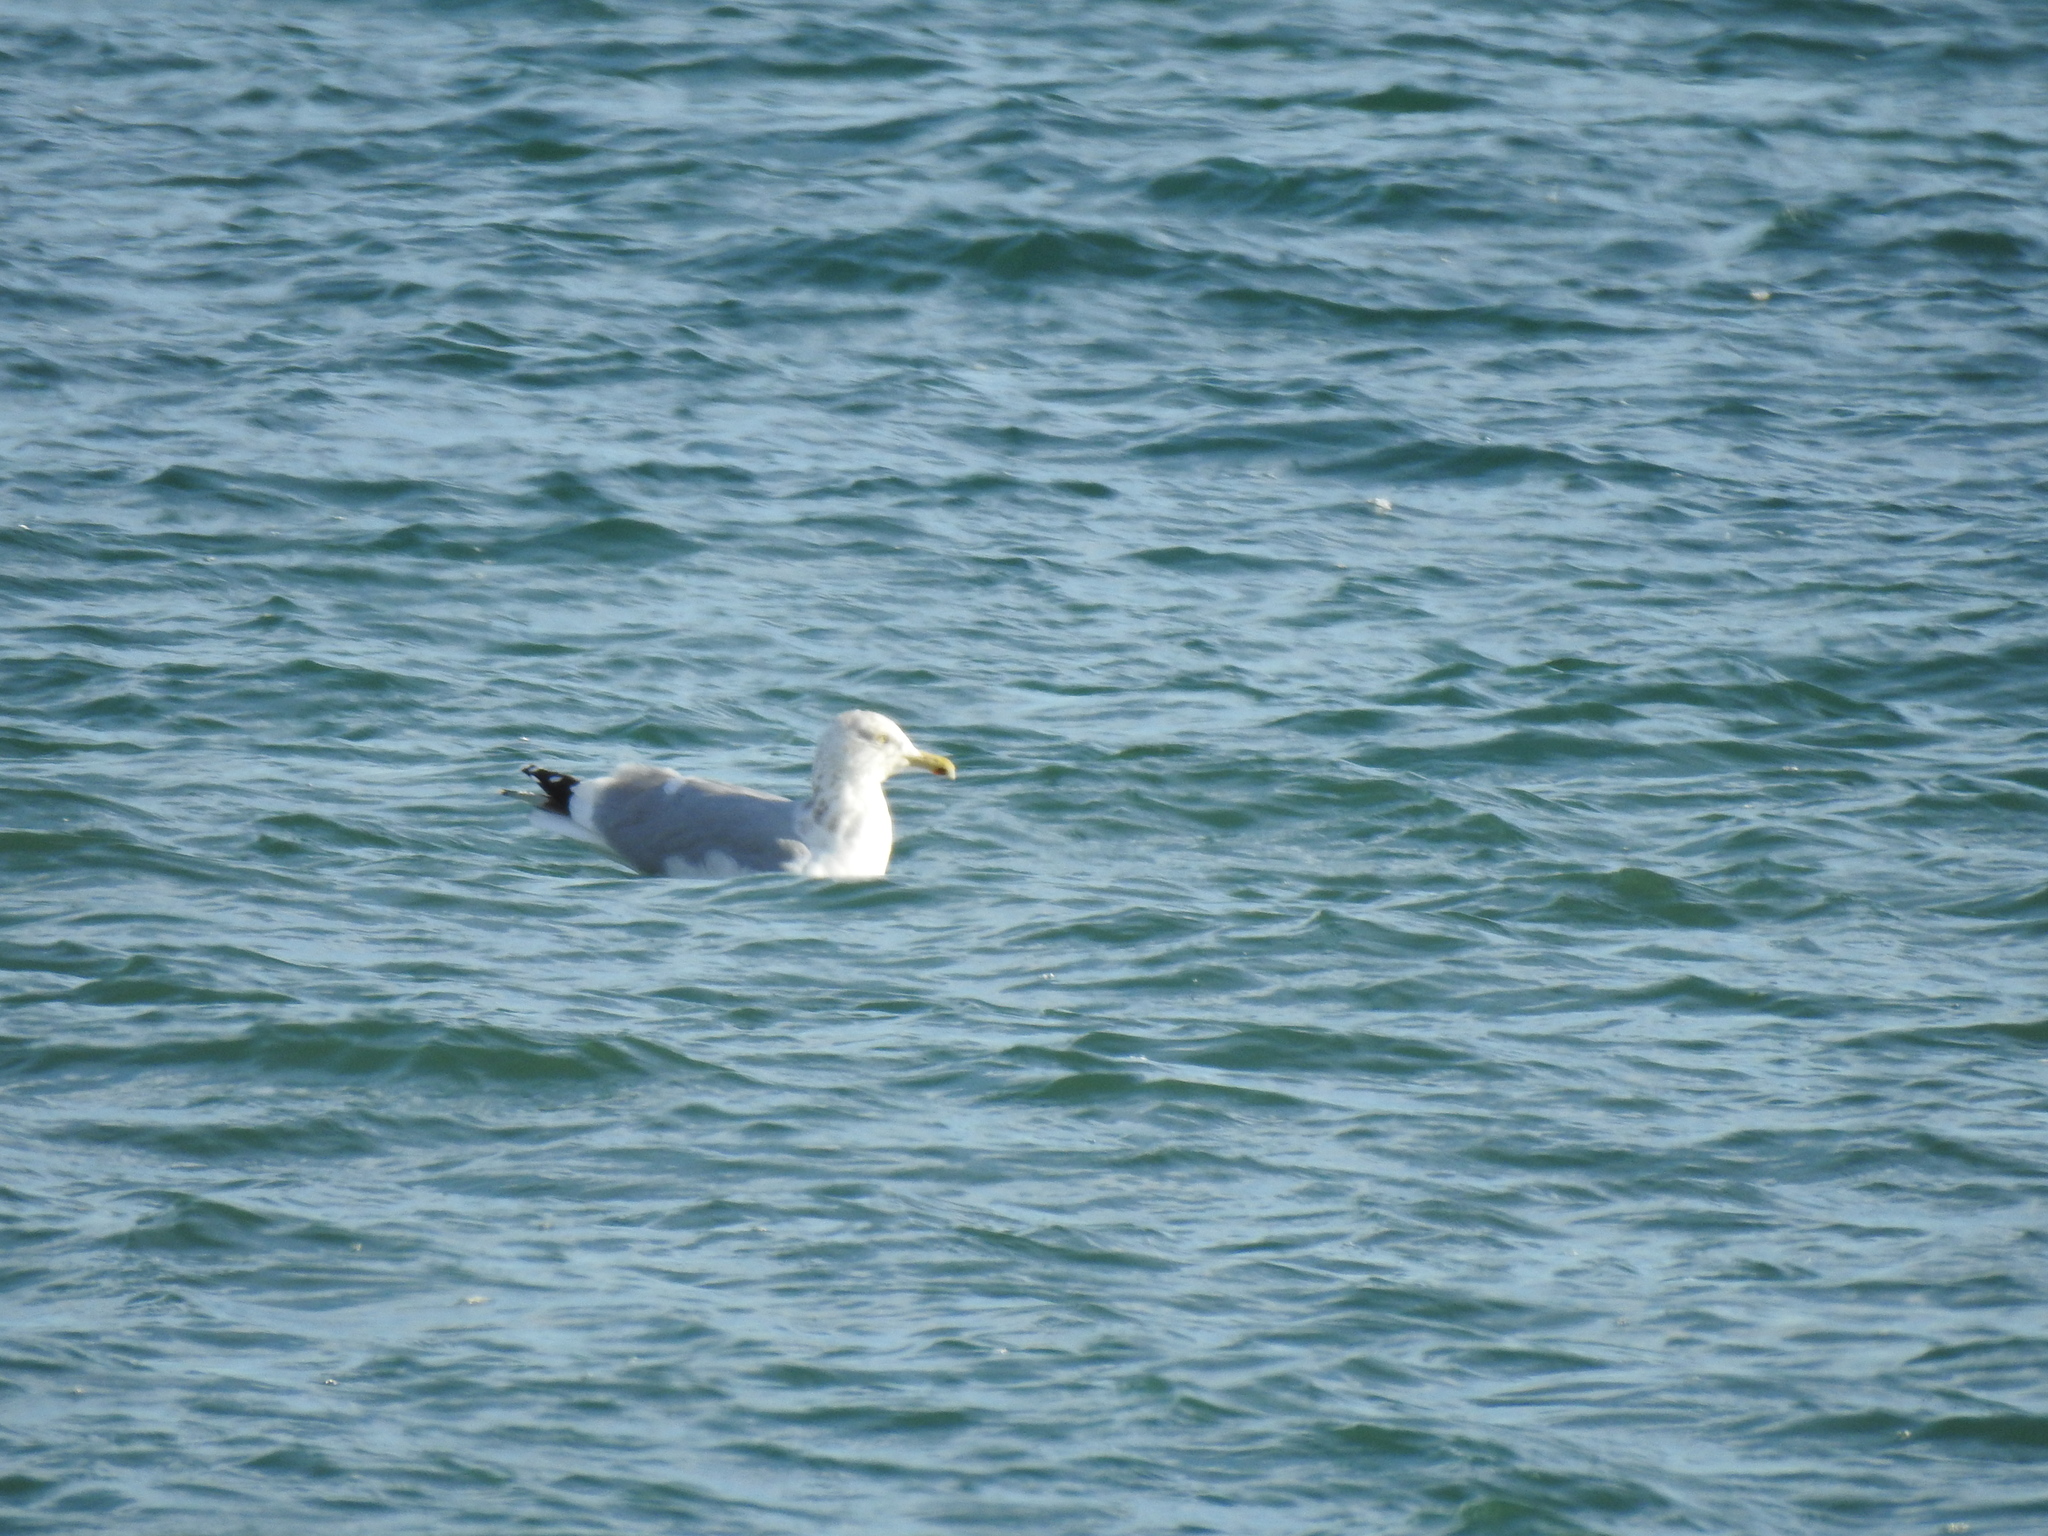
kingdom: Animalia
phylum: Chordata
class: Aves
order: Charadriiformes
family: Laridae
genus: Larus
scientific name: Larus argentatus
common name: Herring gull
